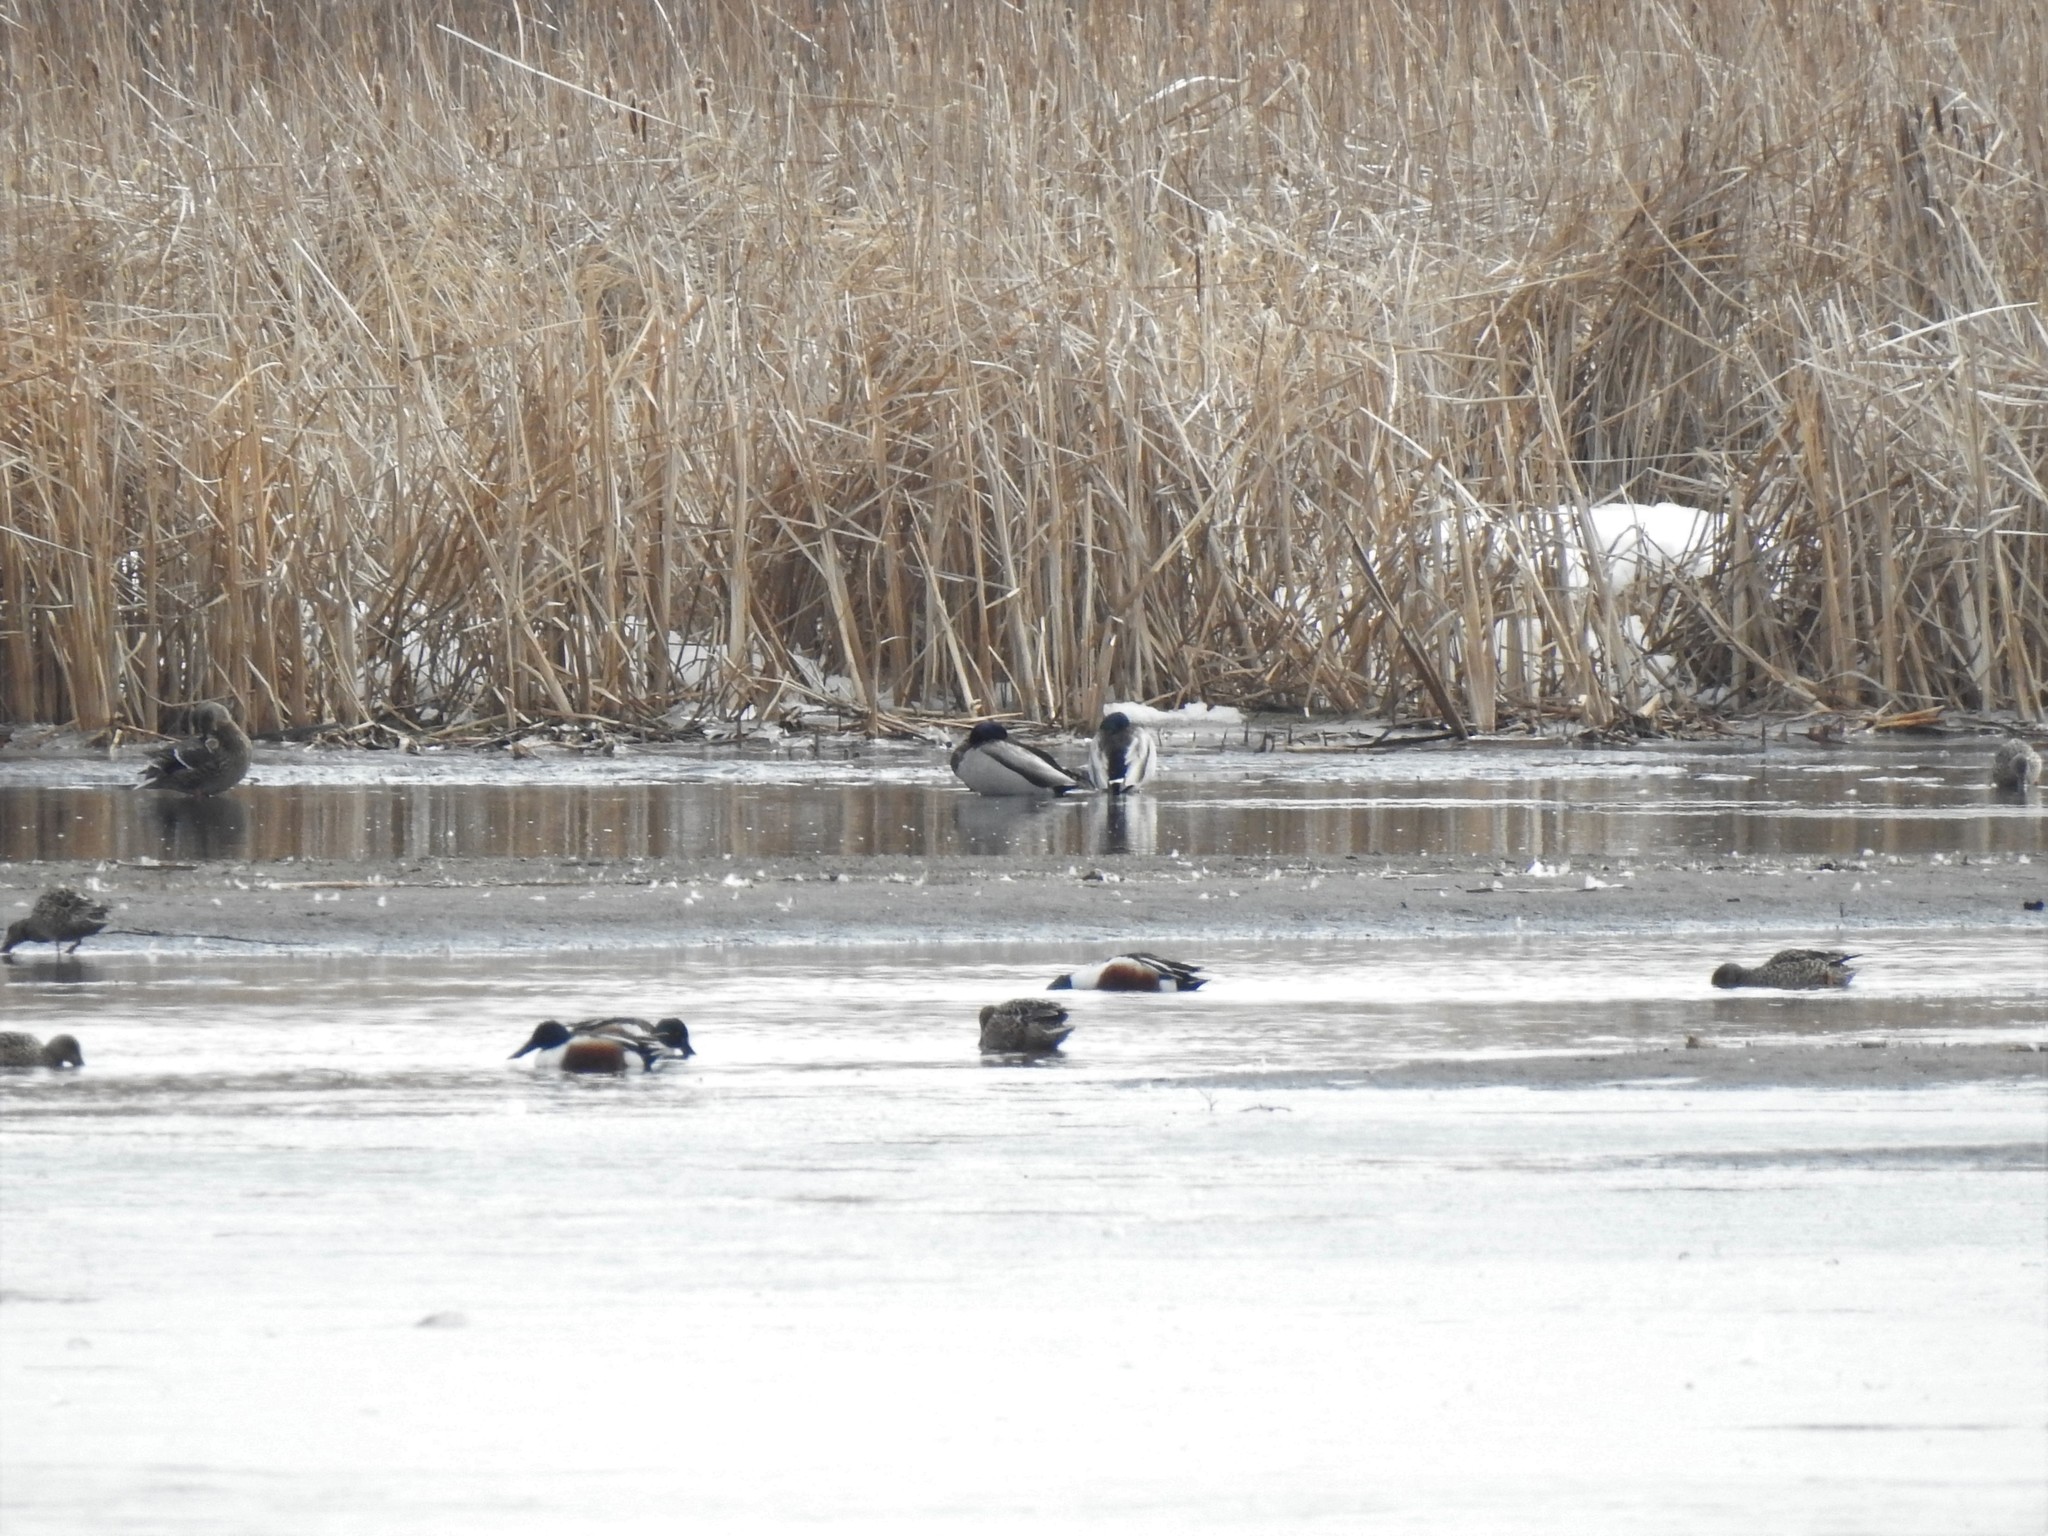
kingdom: Animalia
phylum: Chordata
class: Aves
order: Anseriformes
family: Anatidae
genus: Spatula
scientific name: Spatula clypeata
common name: Northern shoveler
